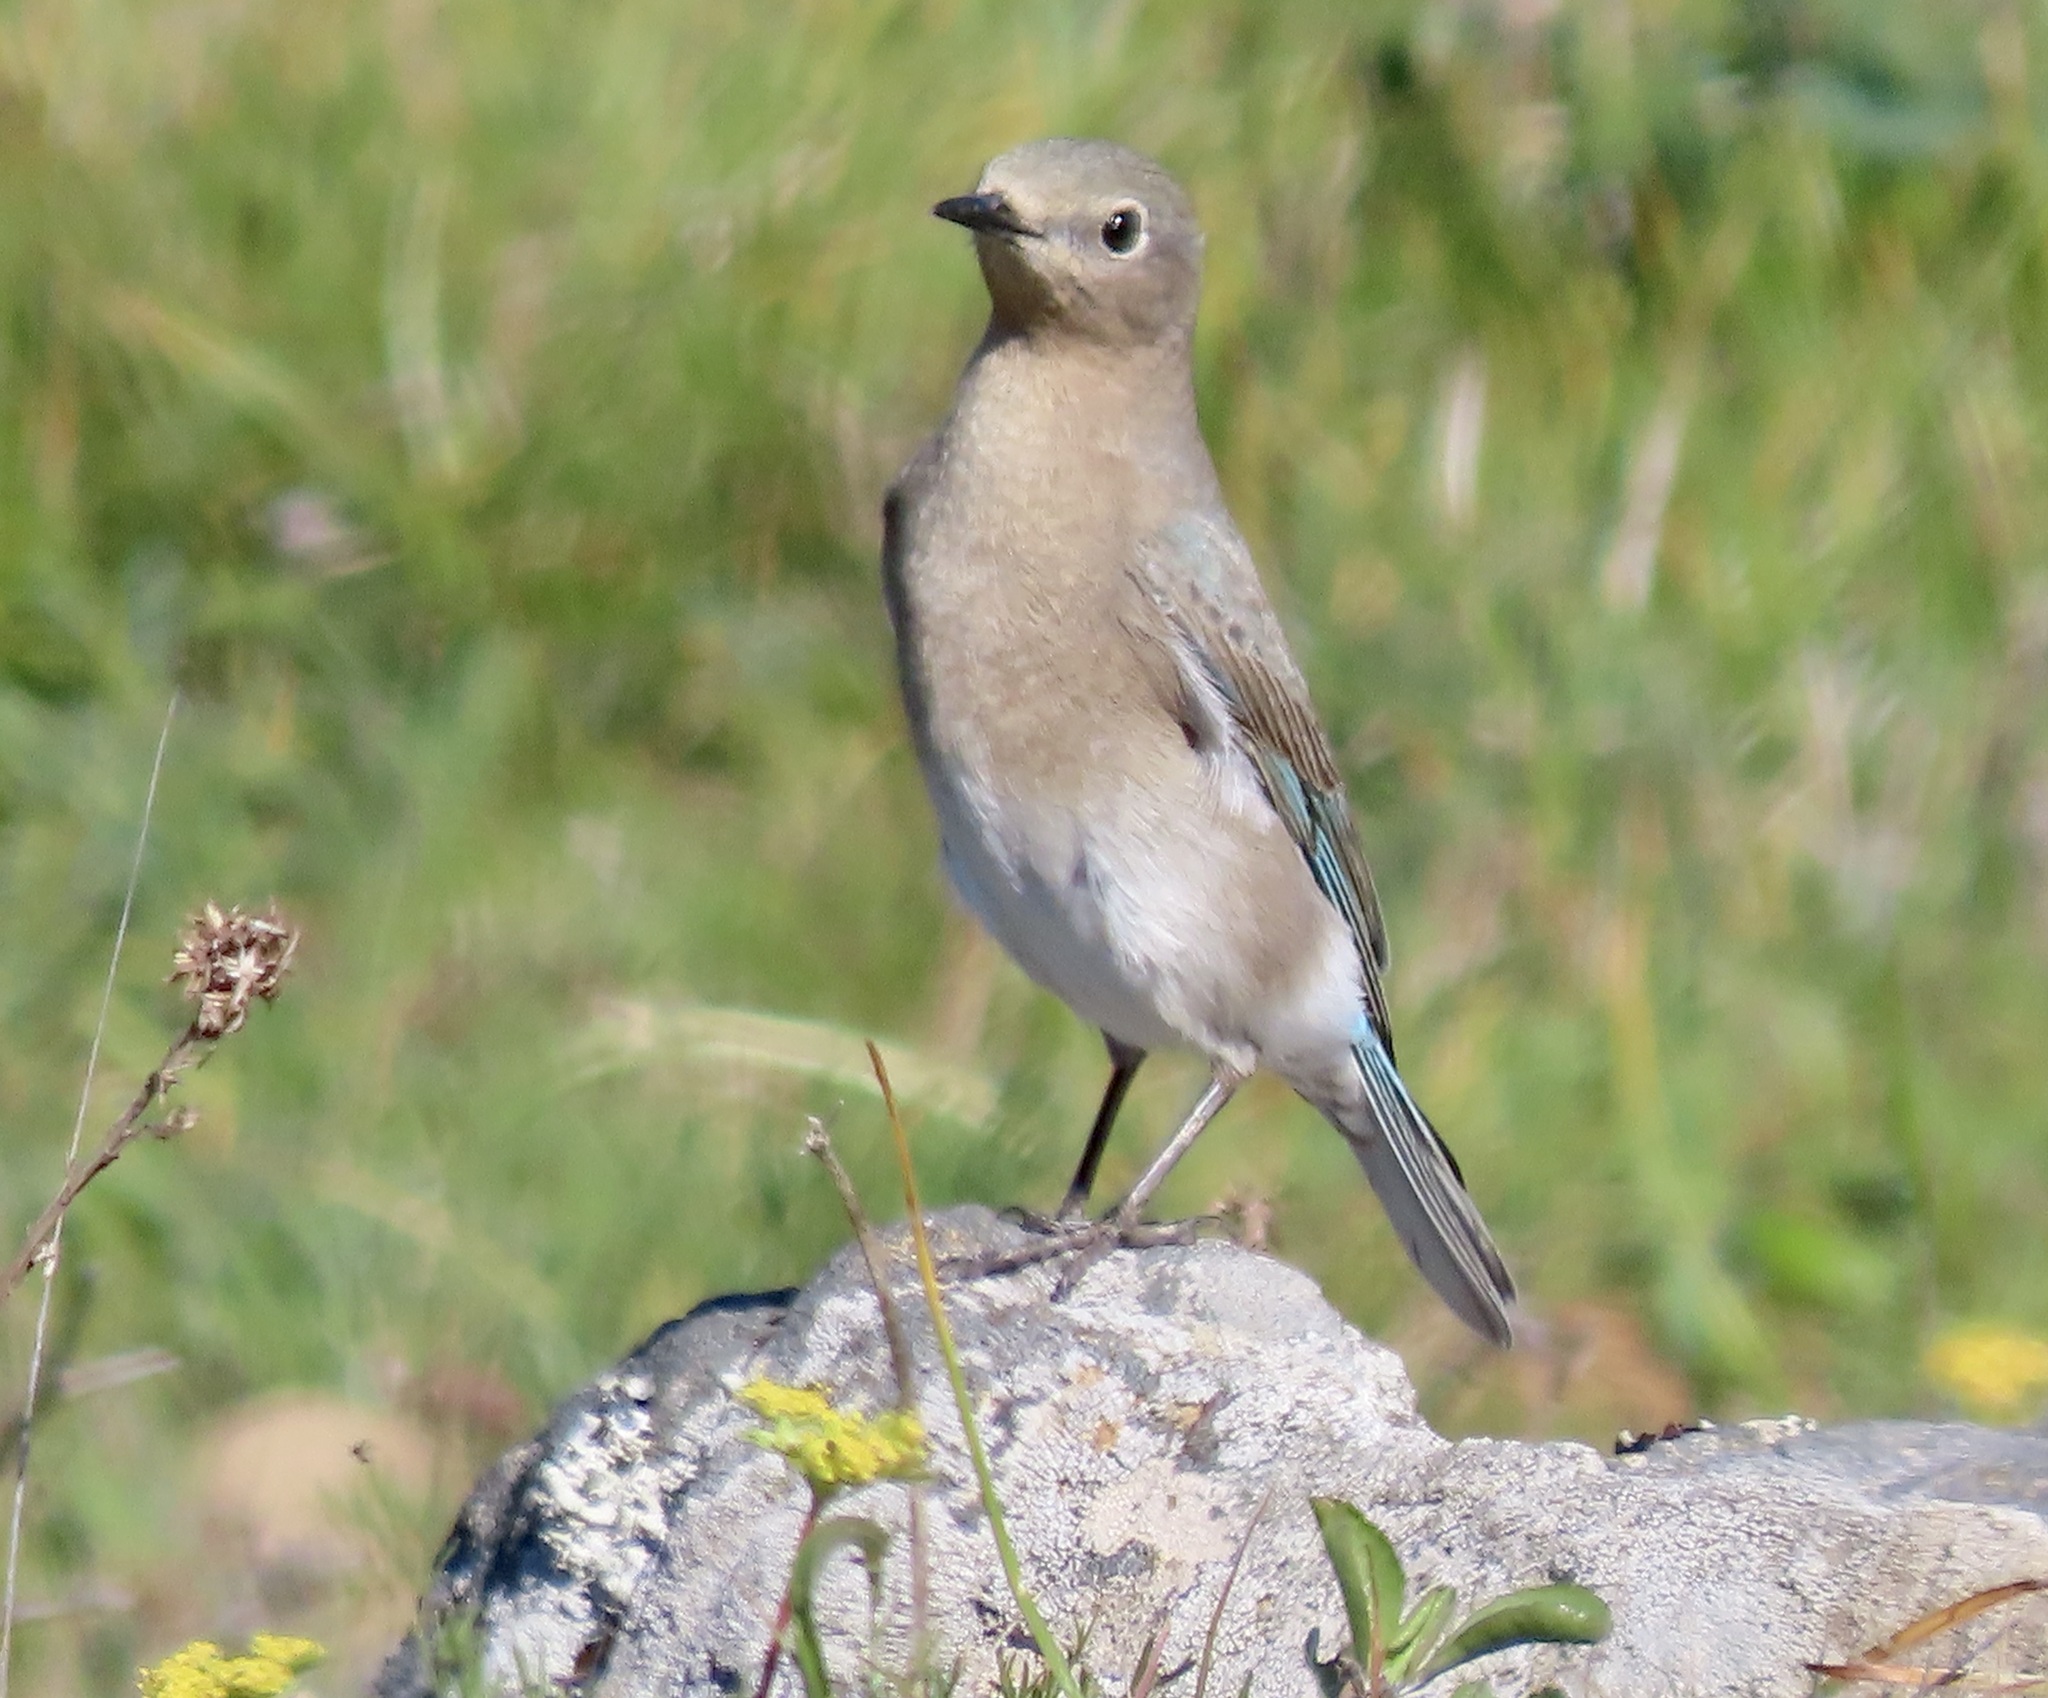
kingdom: Animalia
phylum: Chordata
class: Aves
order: Passeriformes
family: Turdidae
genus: Sialia
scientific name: Sialia currucoides
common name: Mountain bluebird
